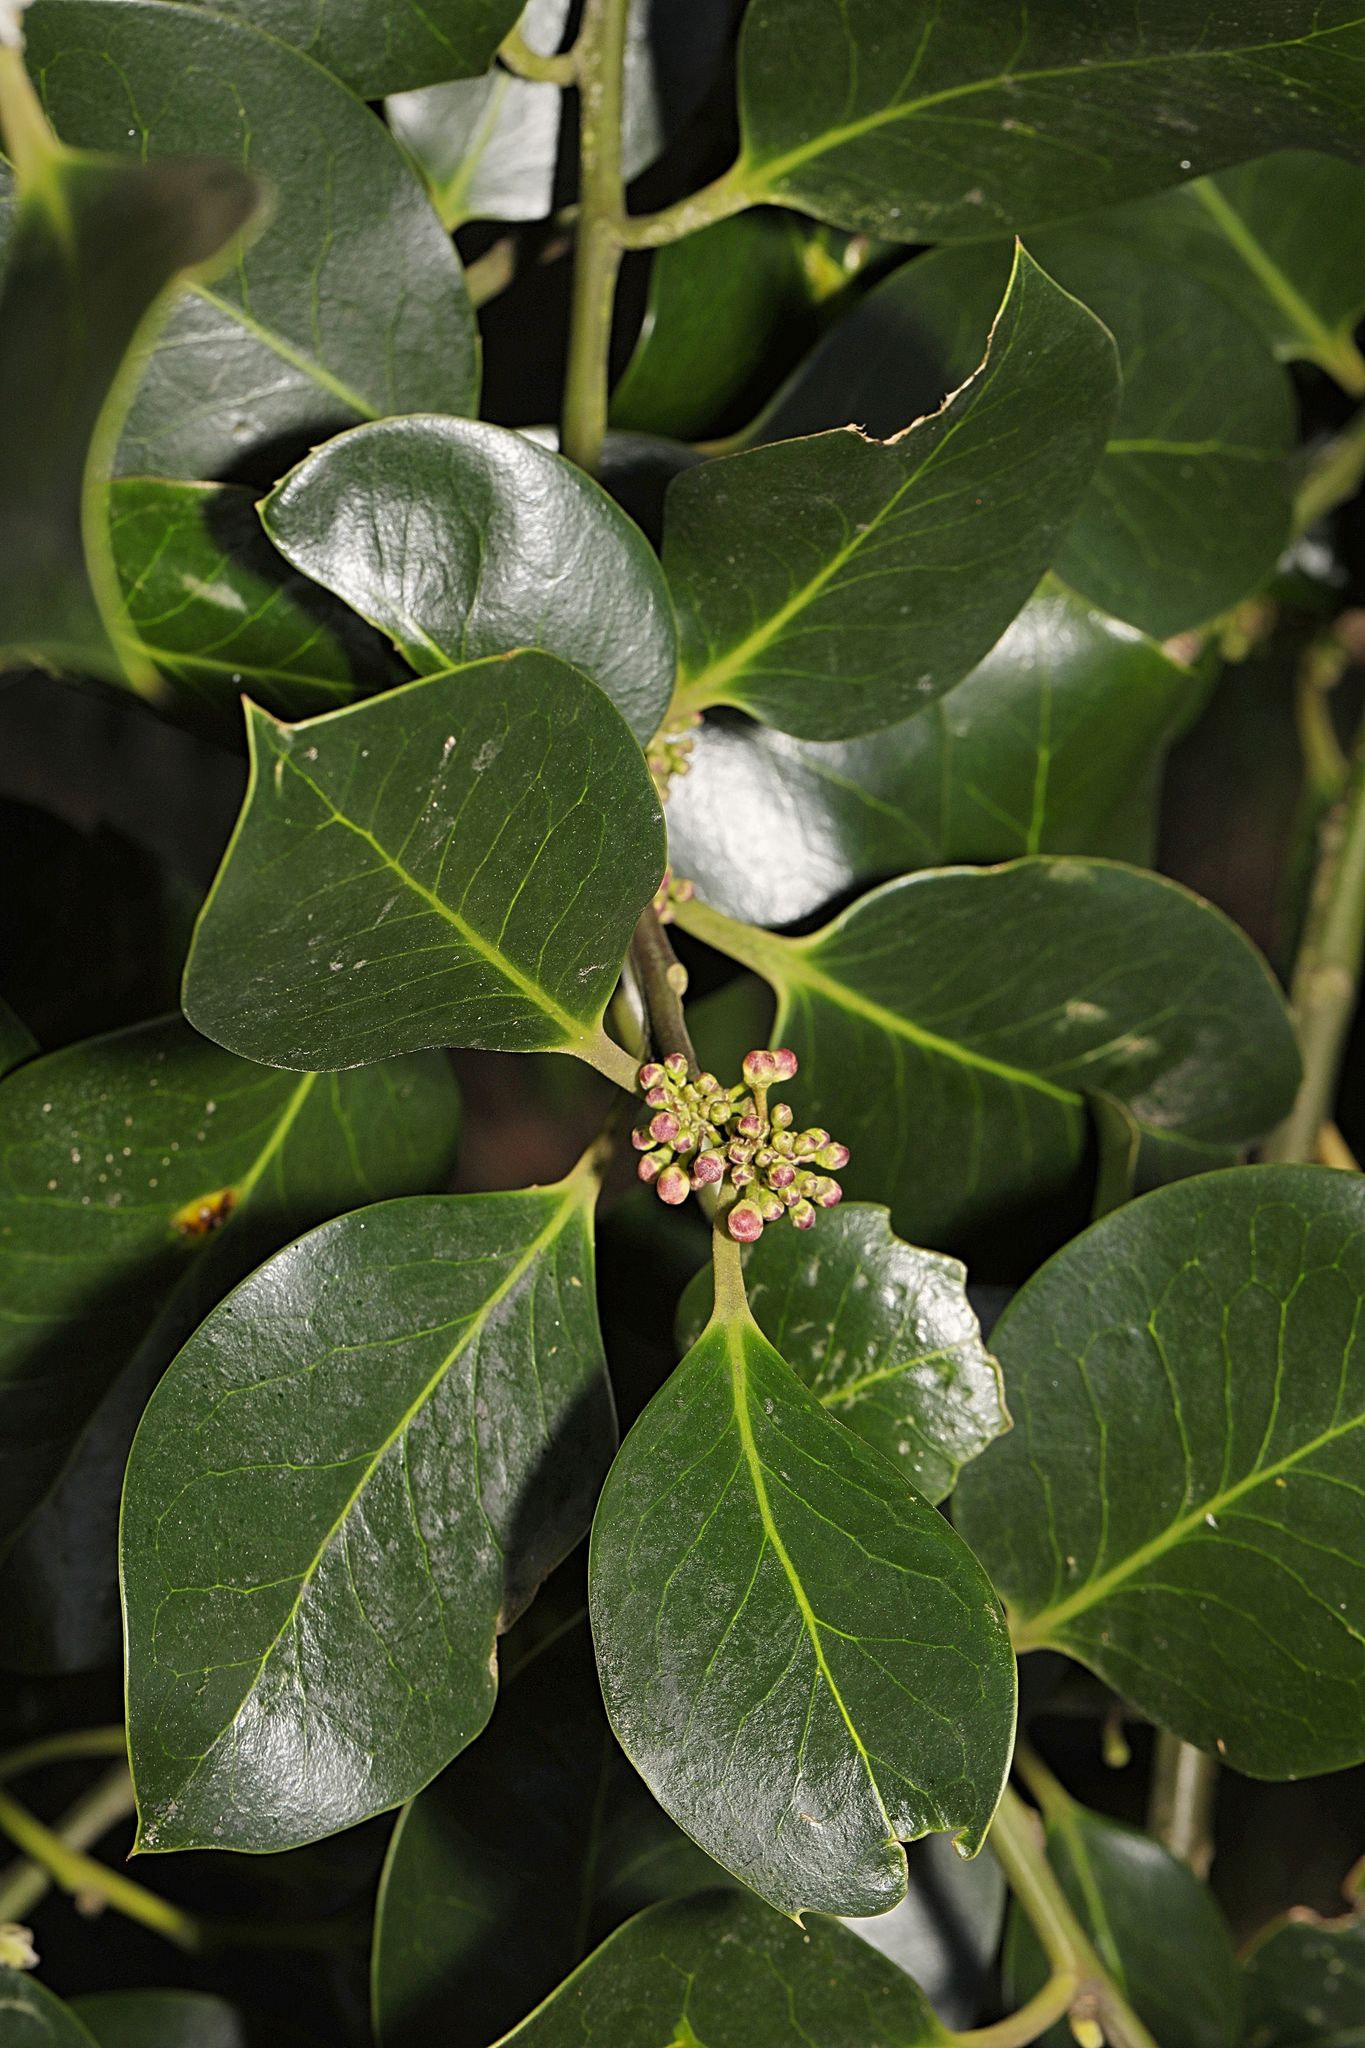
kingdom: Plantae
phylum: Tracheophyta
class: Magnoliopsida
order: Aquifoliales
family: Aquifoliaceae
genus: Ilex
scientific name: Ilex aquifolium
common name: English holly
